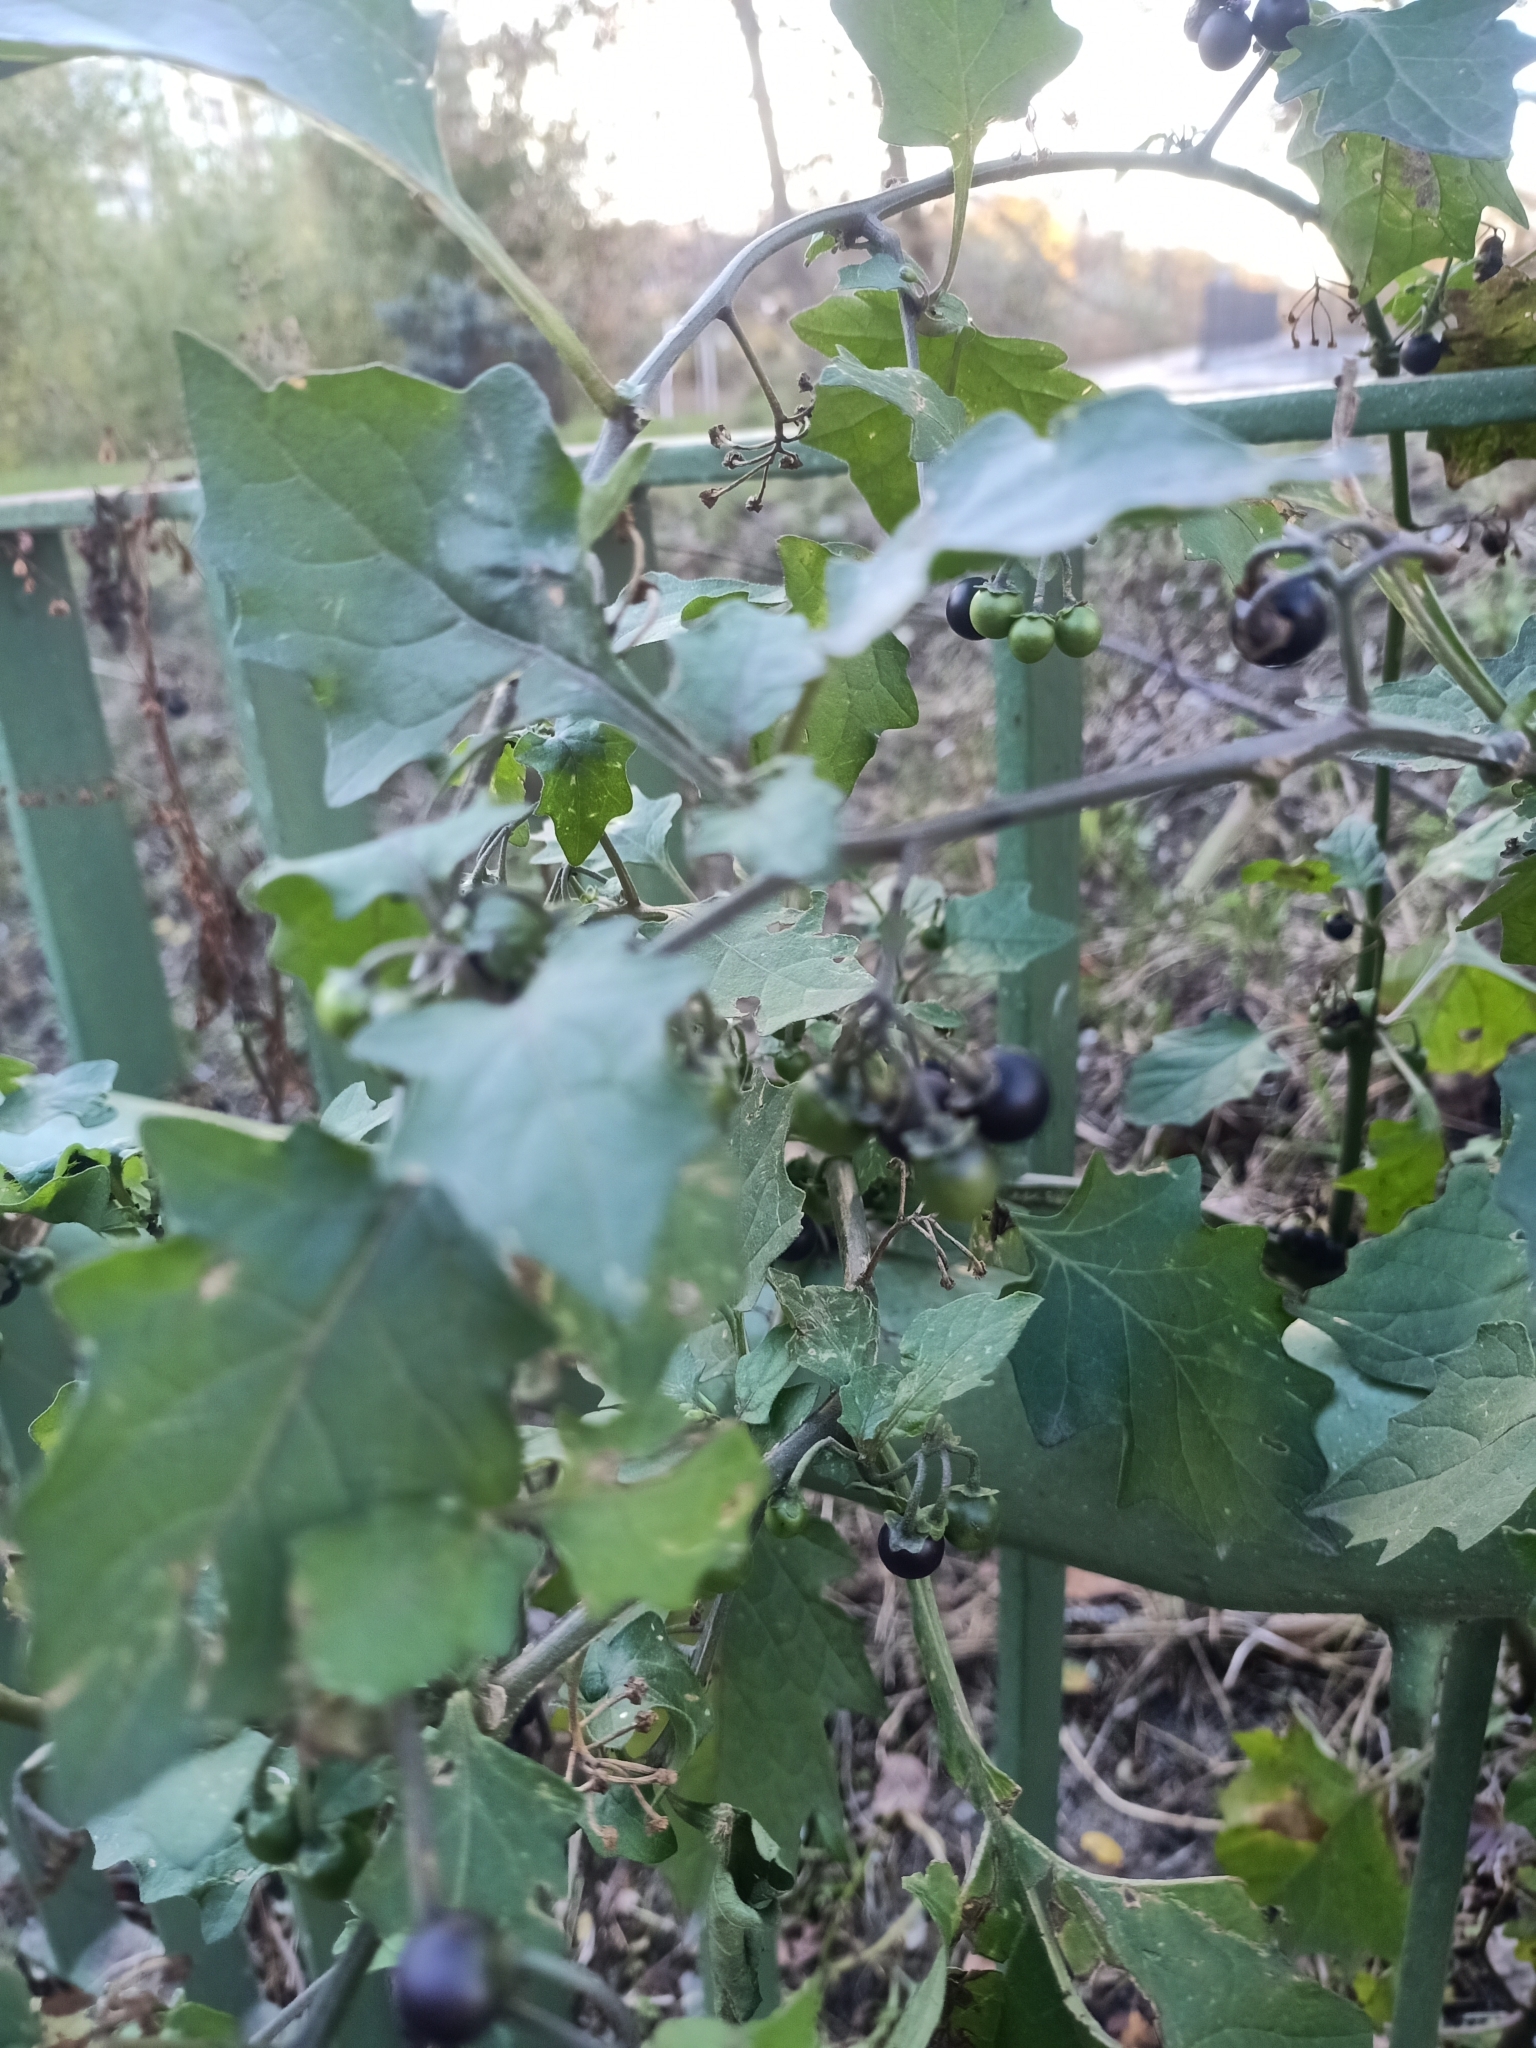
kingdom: Plantae
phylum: Tracheophyta
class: Magnoliopsida
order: Solanales
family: Solanaceae
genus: Solanum
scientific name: Solanum nigrum
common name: Black nightshade
